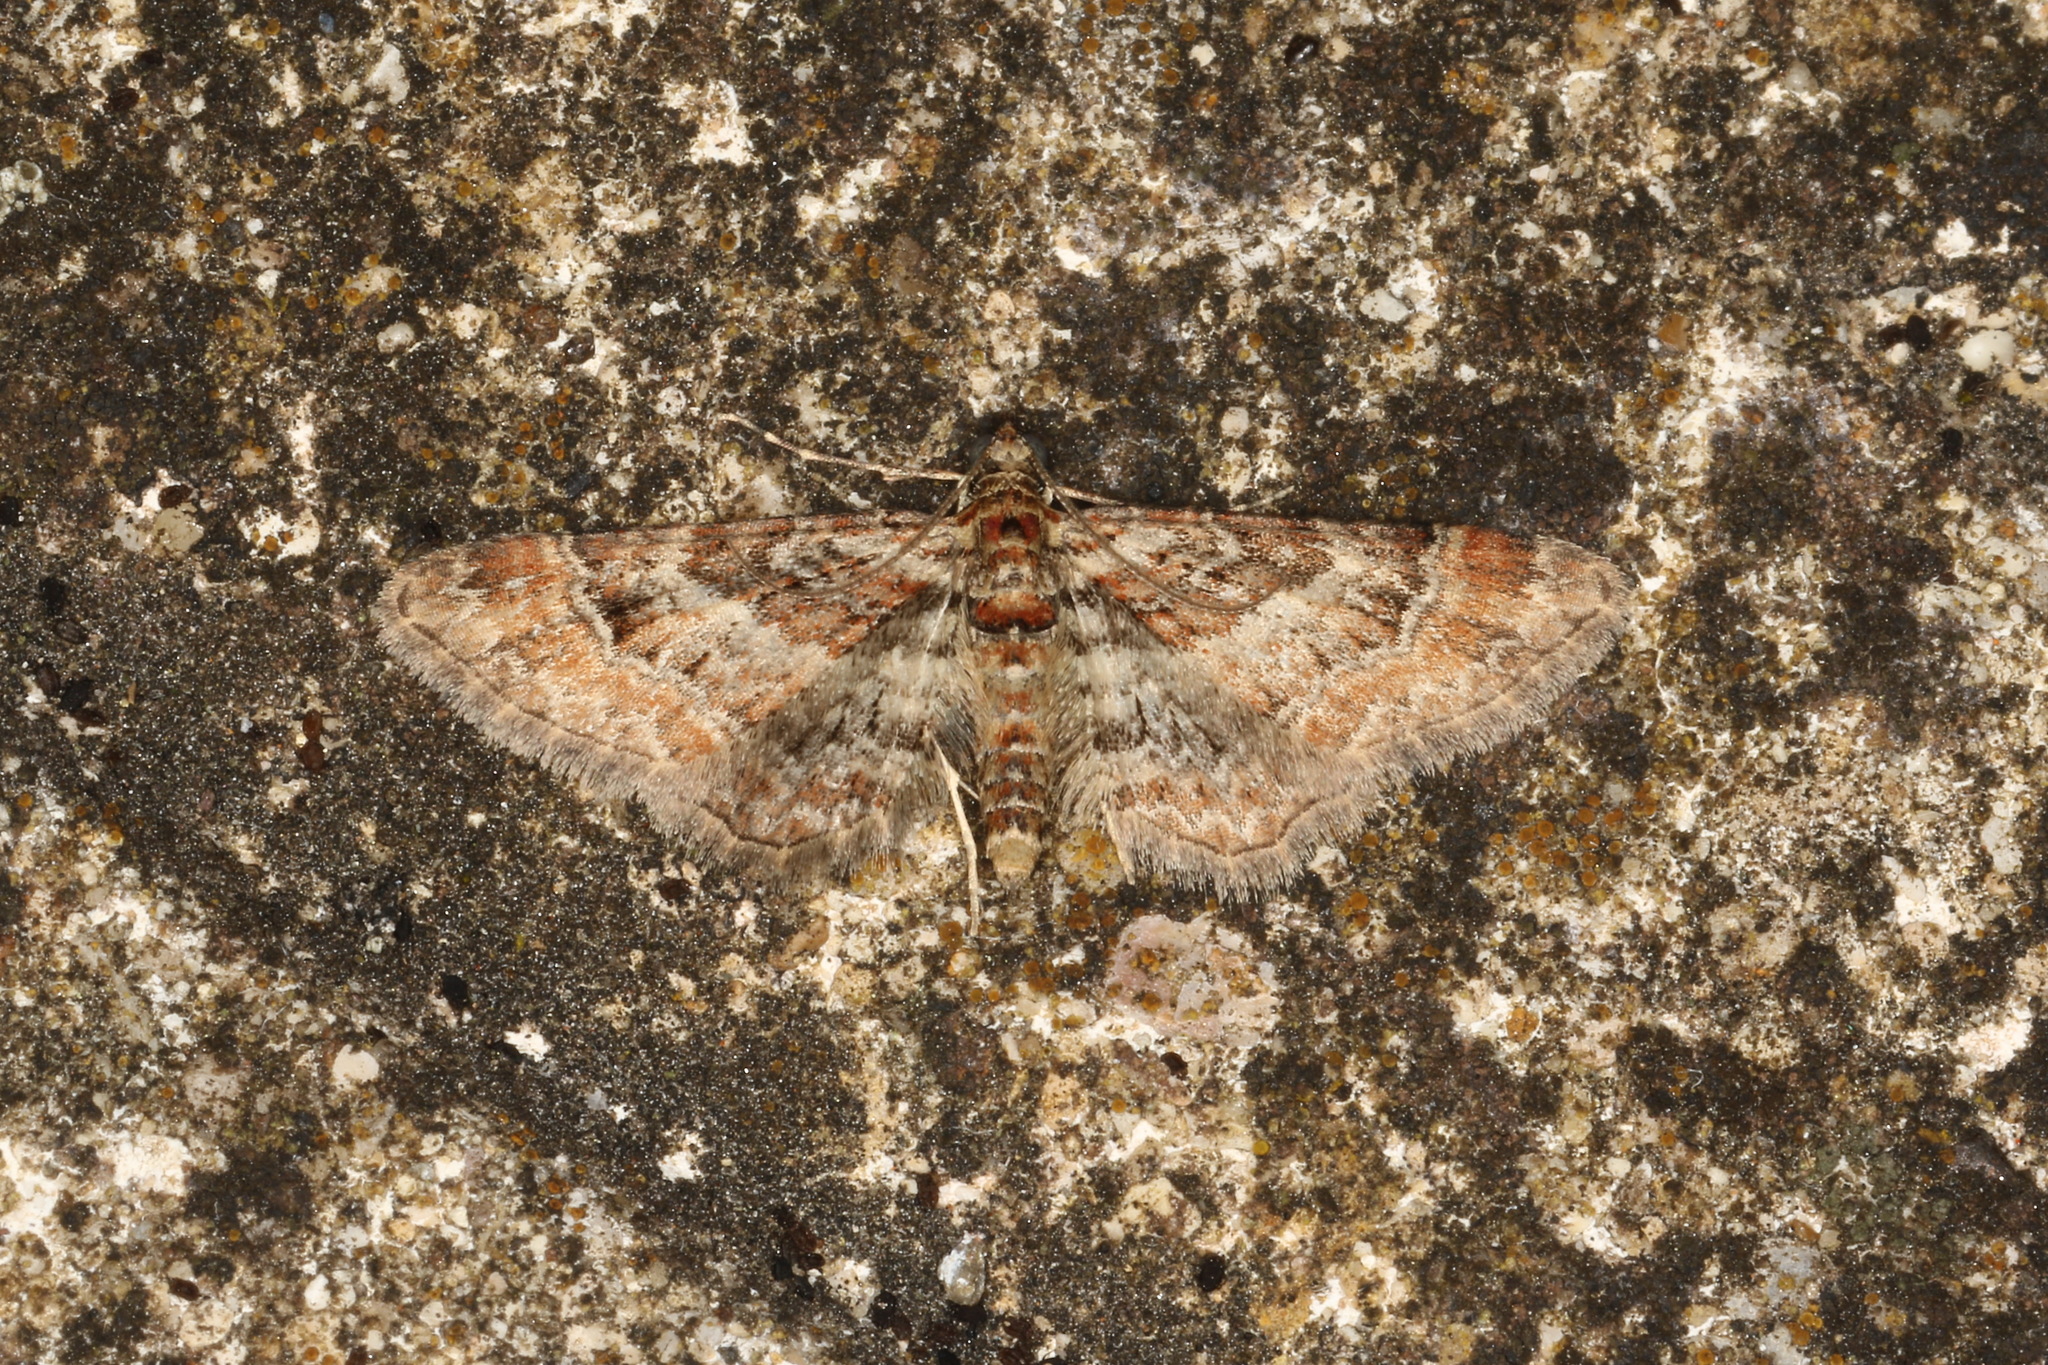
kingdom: Animalia
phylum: Arthropoda
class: Insecta
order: Lepidoptera
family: Geometridae
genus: Gymnoscelis
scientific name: Gymnoscelis rufifasciata
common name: Double-striped pug
